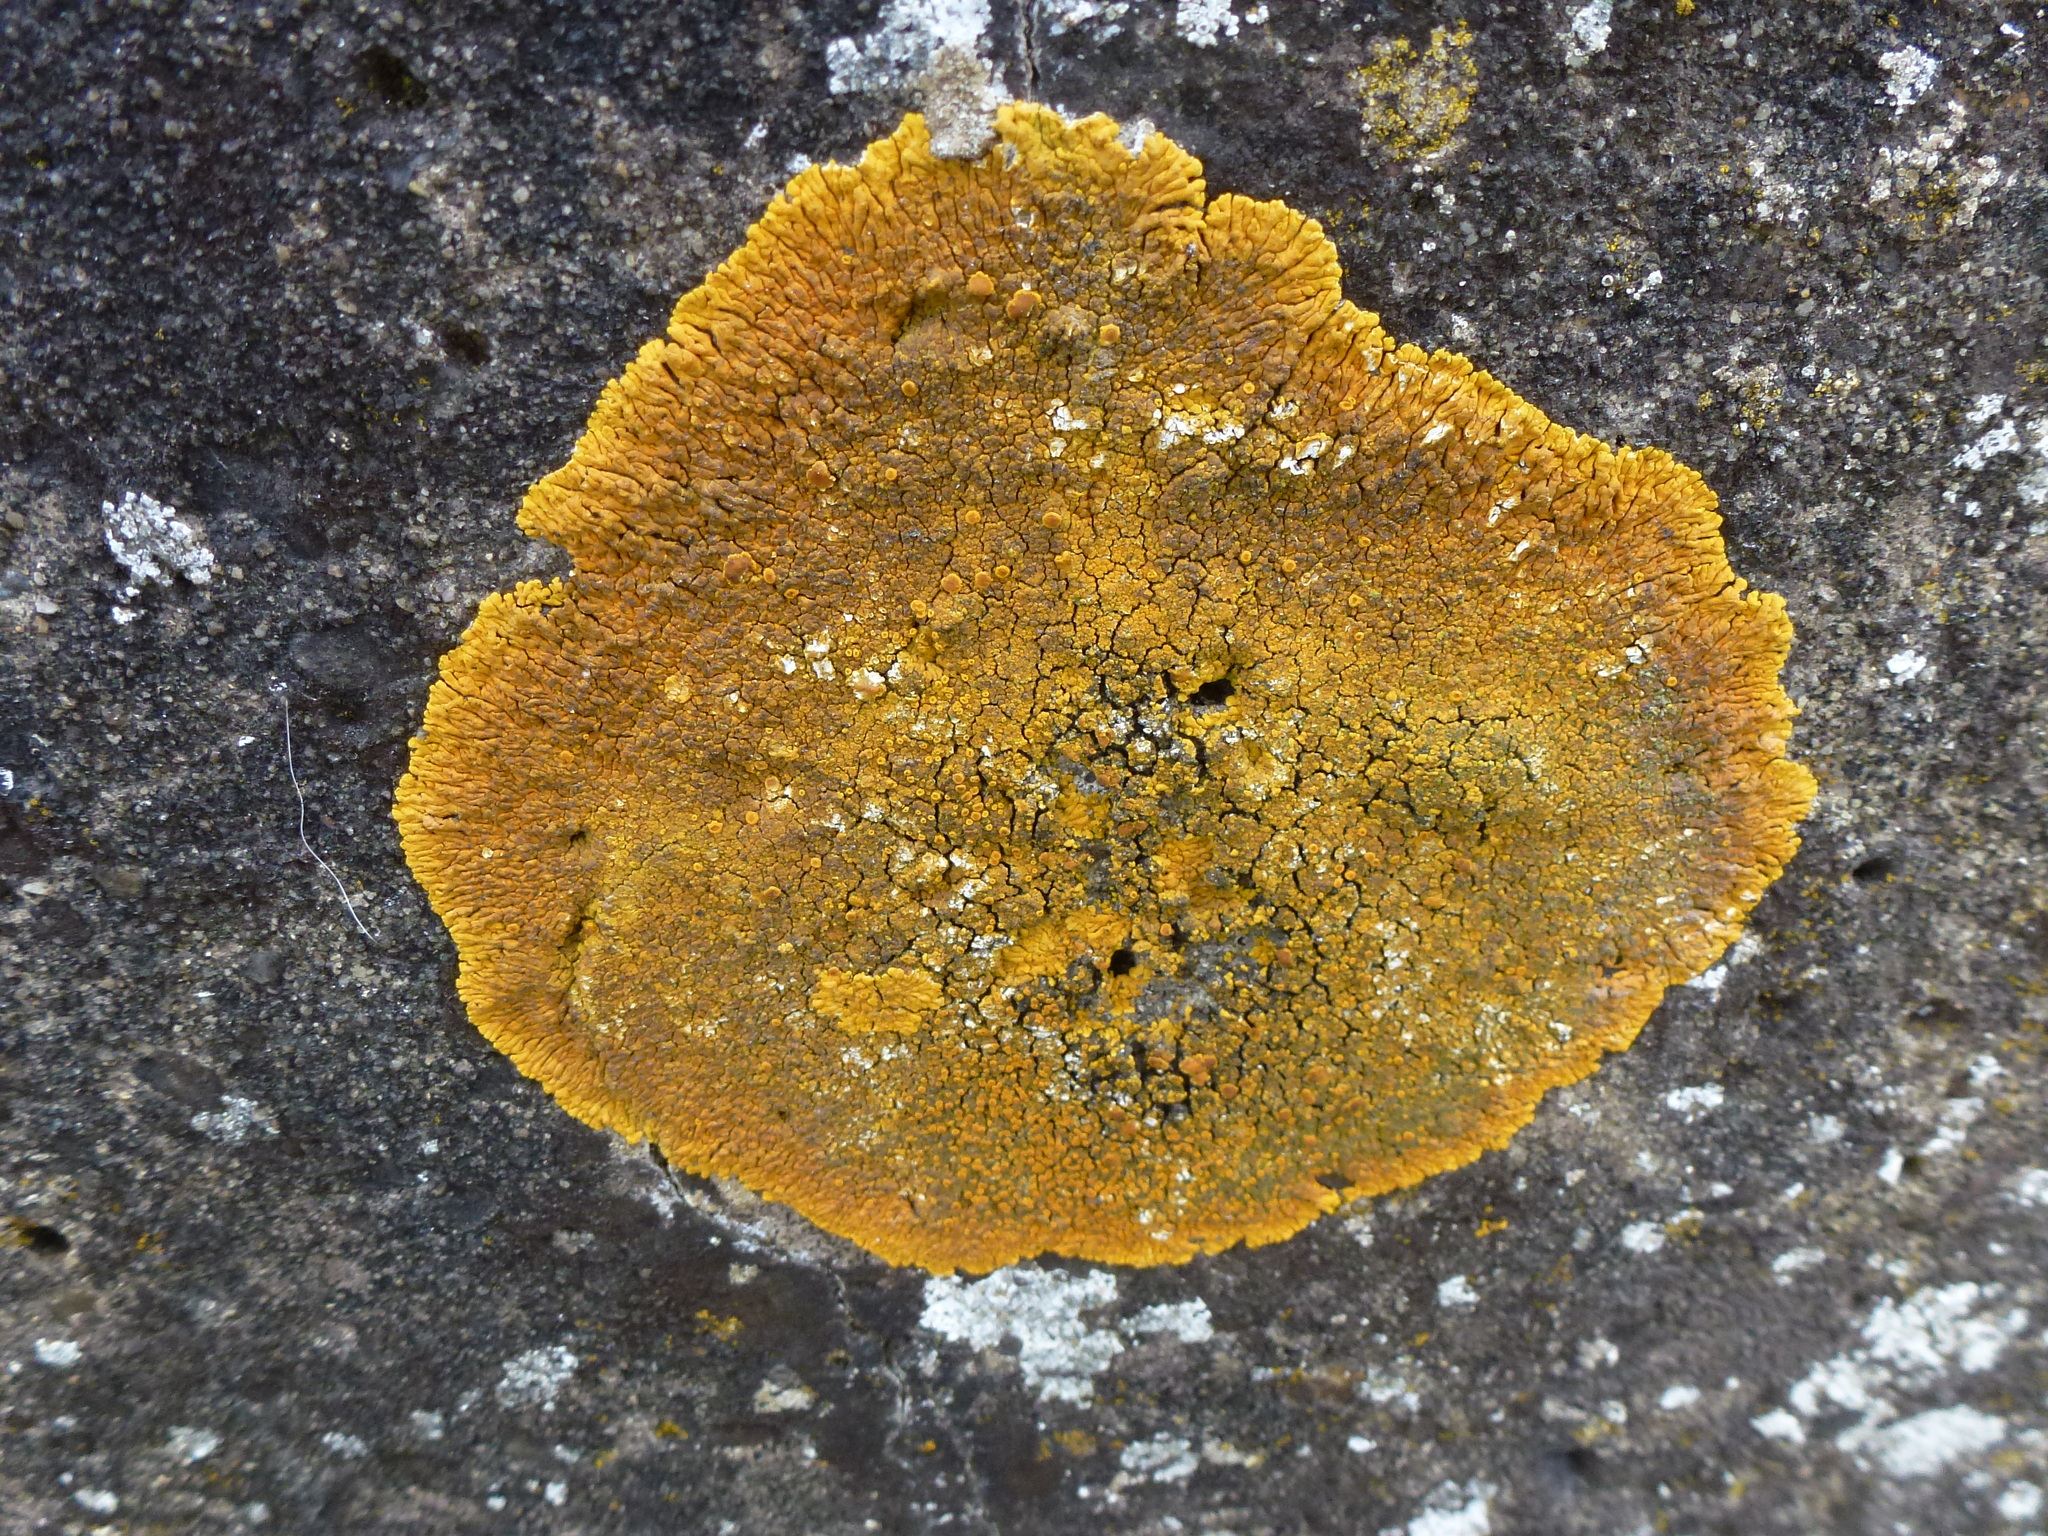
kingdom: Fungi
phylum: Ascomycota
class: Lecanoromycetes
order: Teloschistales
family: Teloschistaceae
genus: Variospora
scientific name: Variospora flavescens
